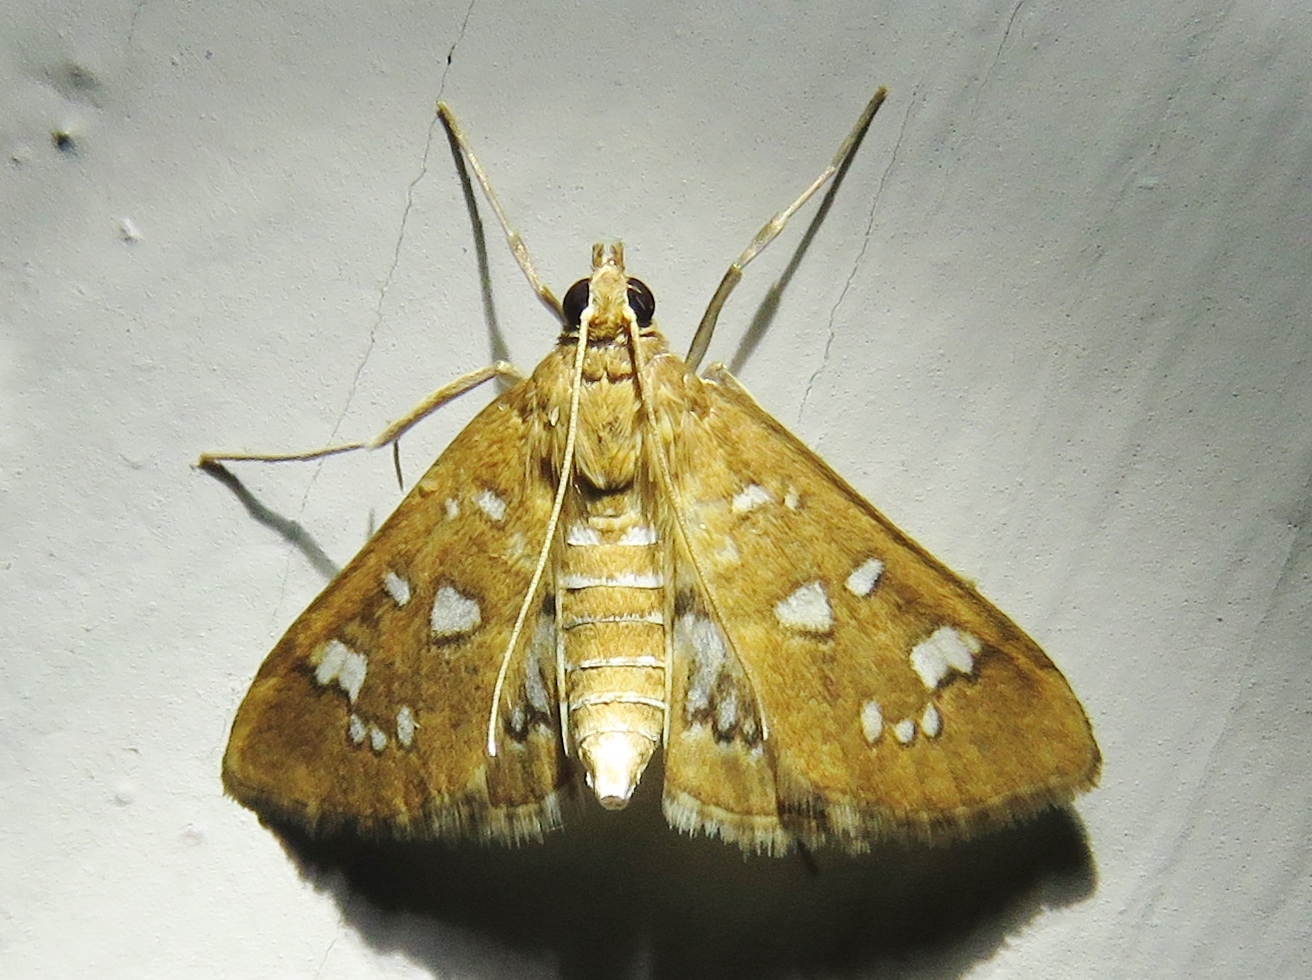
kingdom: Animalia
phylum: Arthropoda
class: Insecta
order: Lepidoptera
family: Crambidae
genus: Samea
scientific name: Samea baccatalis
